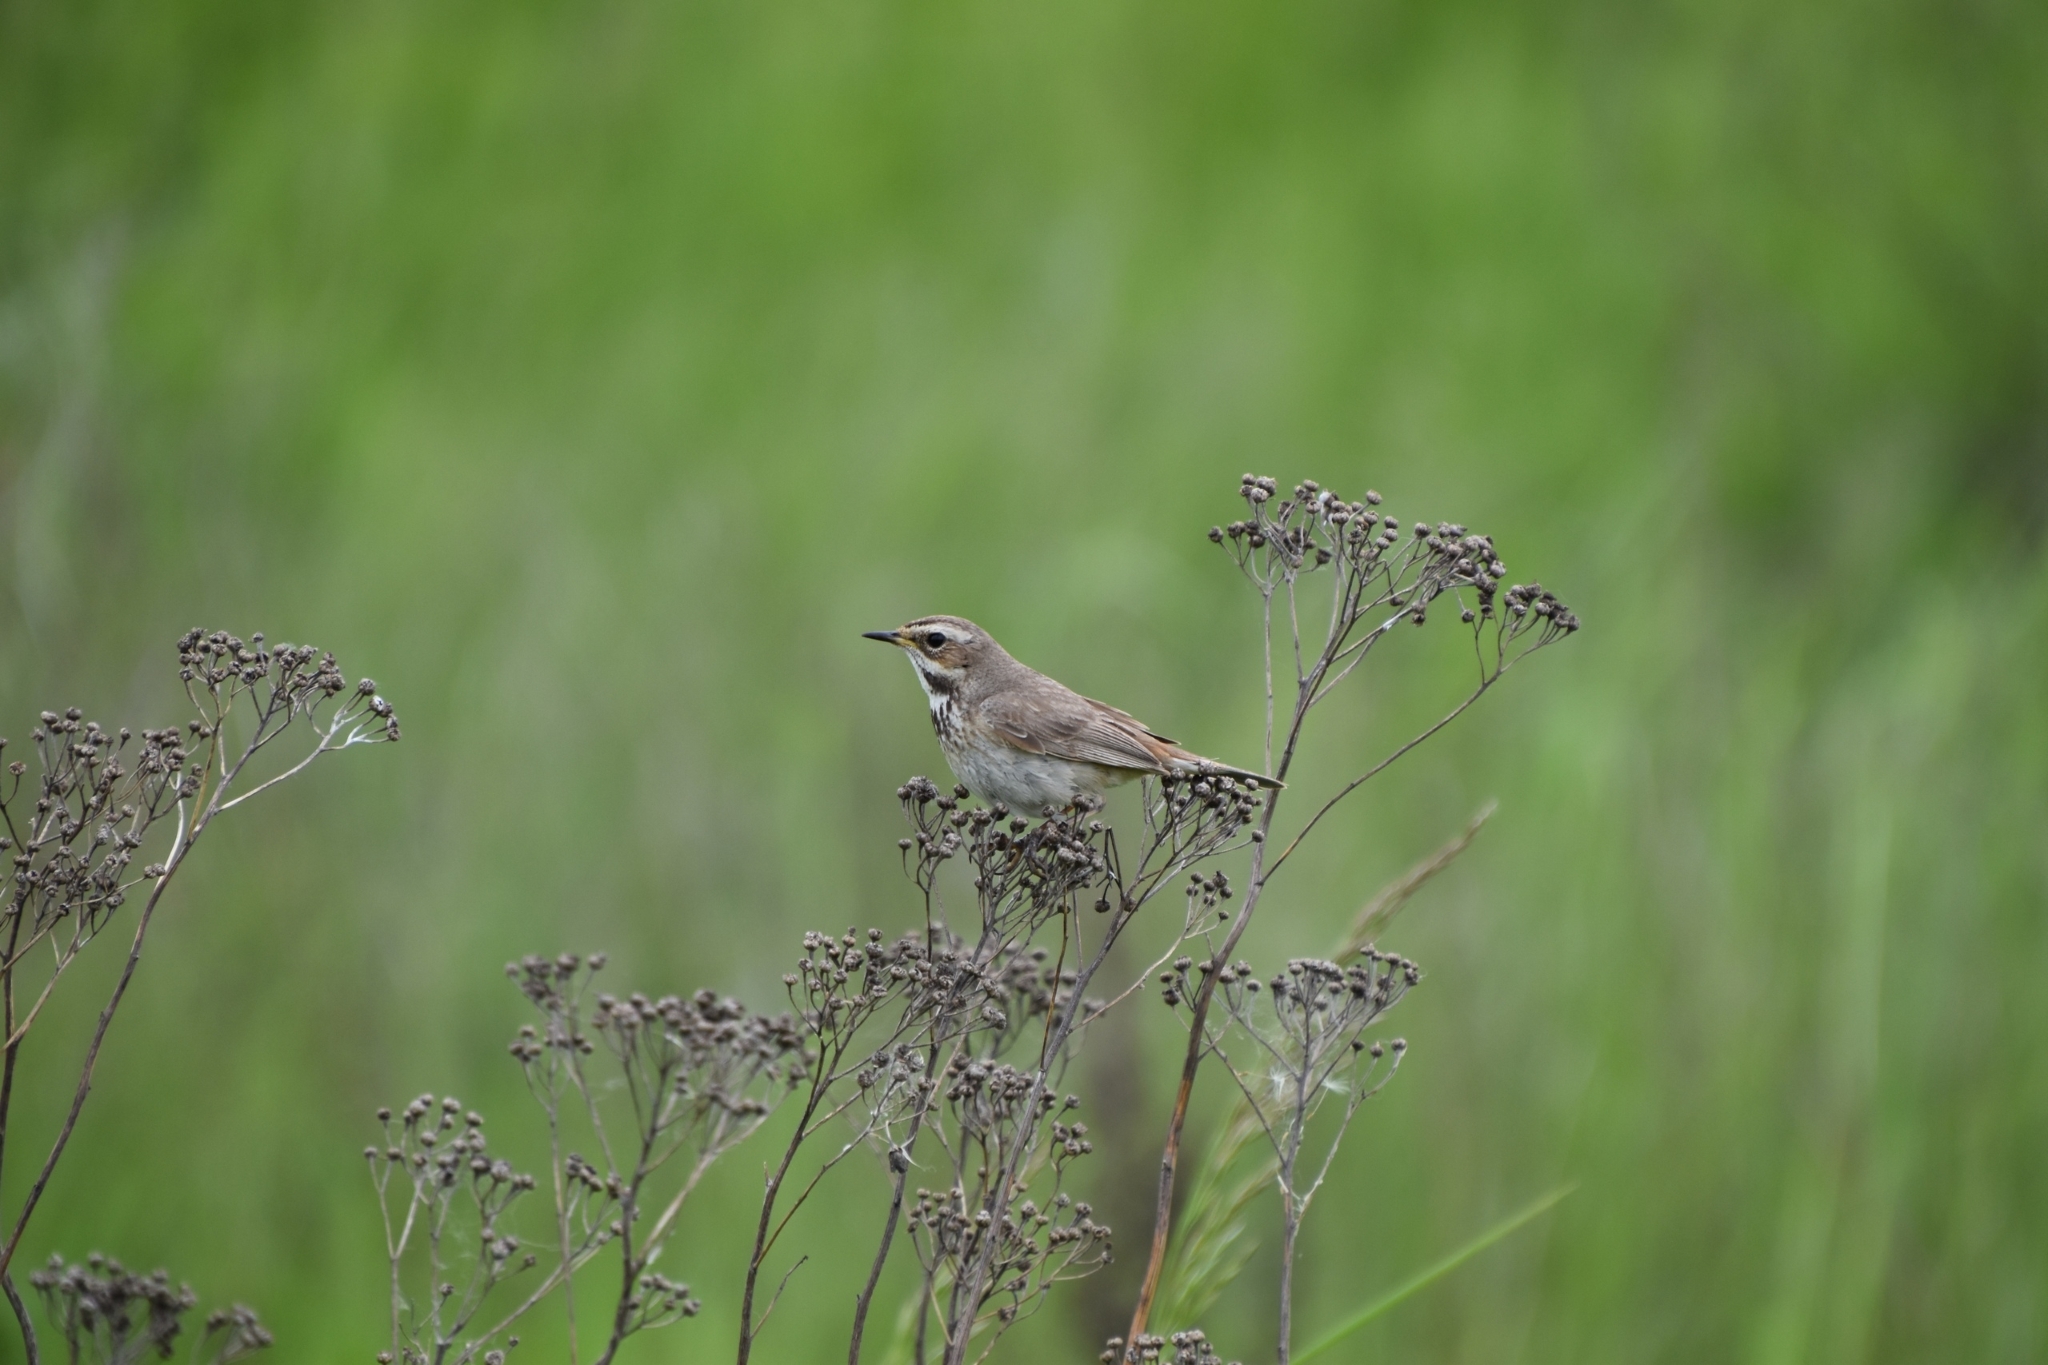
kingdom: Animalia
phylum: Chordata
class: Aves
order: Passeriformes
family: Muscicapidae
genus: Luscinia
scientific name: Luscinia svecica
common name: Bluethroat
